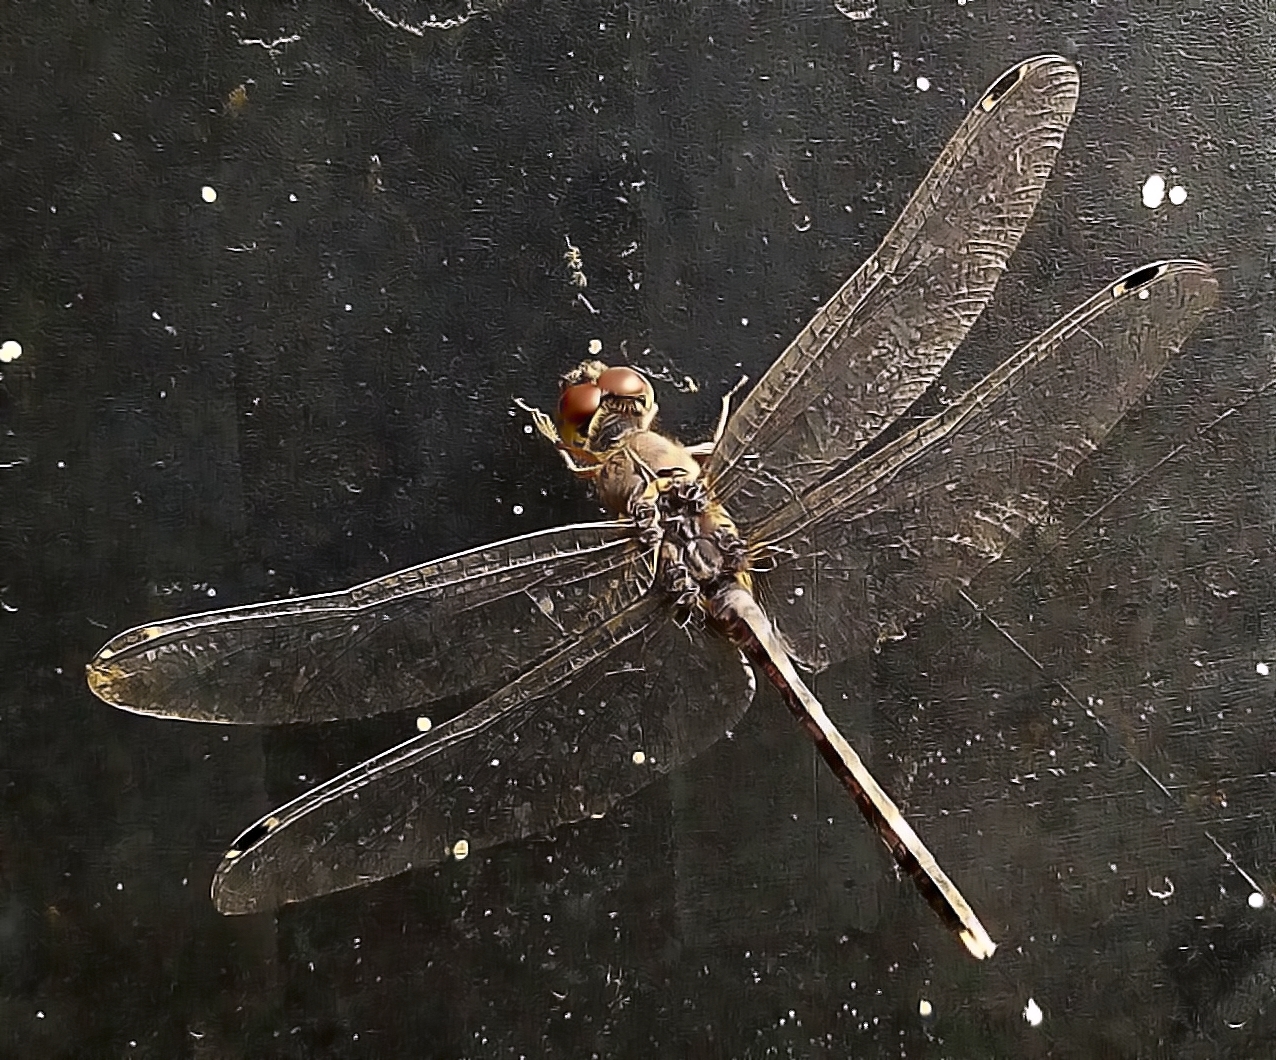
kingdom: Animalia
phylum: Arthropoda
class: Insecta
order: Odonata
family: Libellulidae
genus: Bradinopyga
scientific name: Bradinopyga geminata
